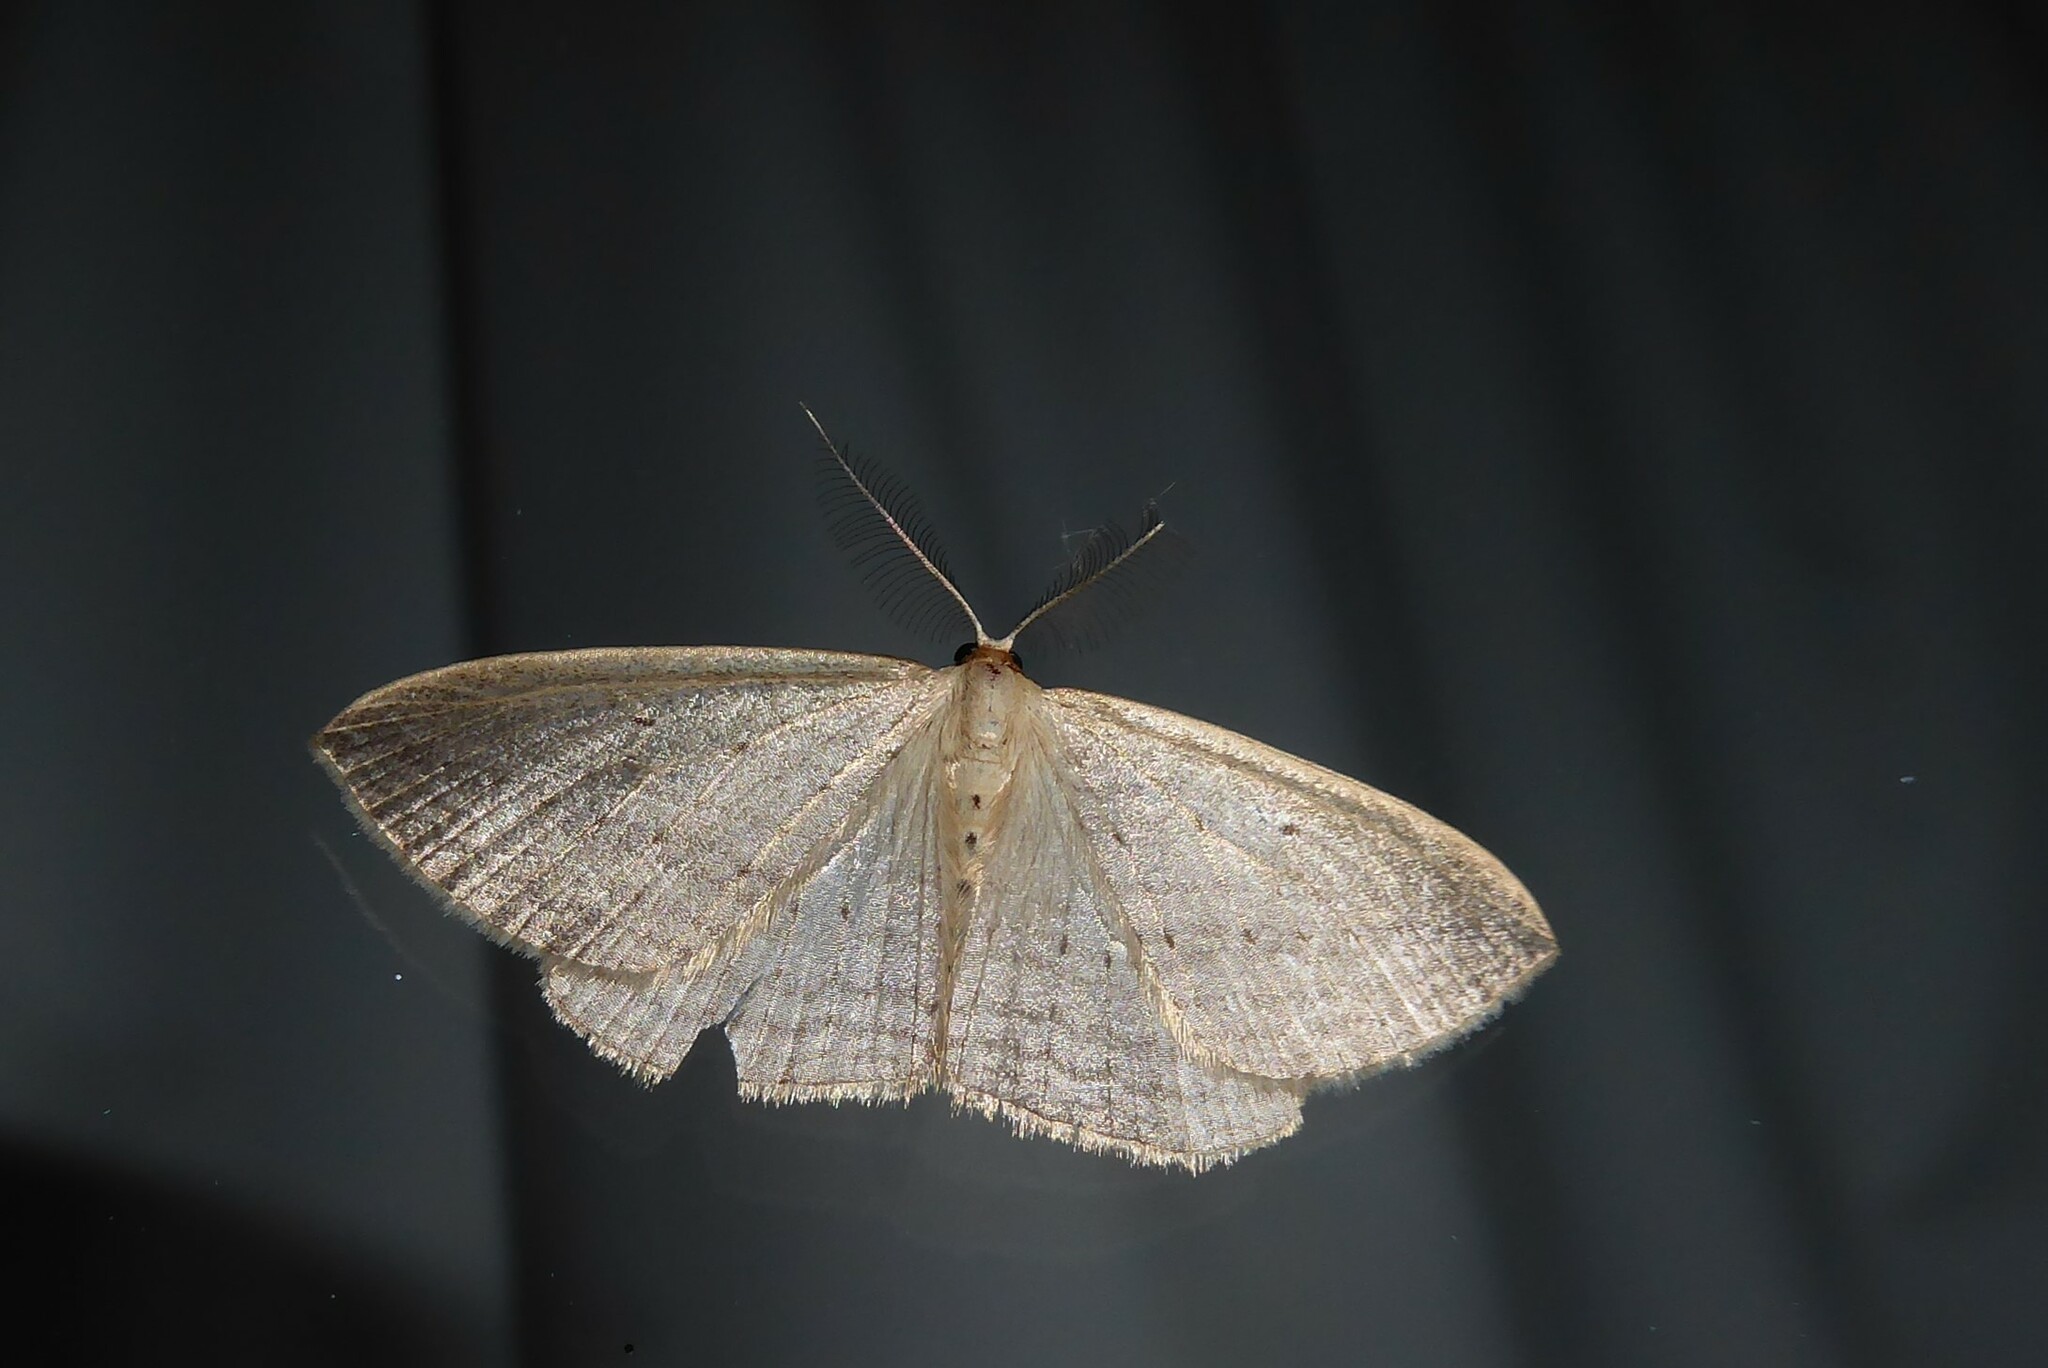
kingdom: Animalia
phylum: Arthropoda
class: Insecta
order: Lepidoptera
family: Geometridae
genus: Orthoclydon
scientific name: Orthoclydon praefectata
